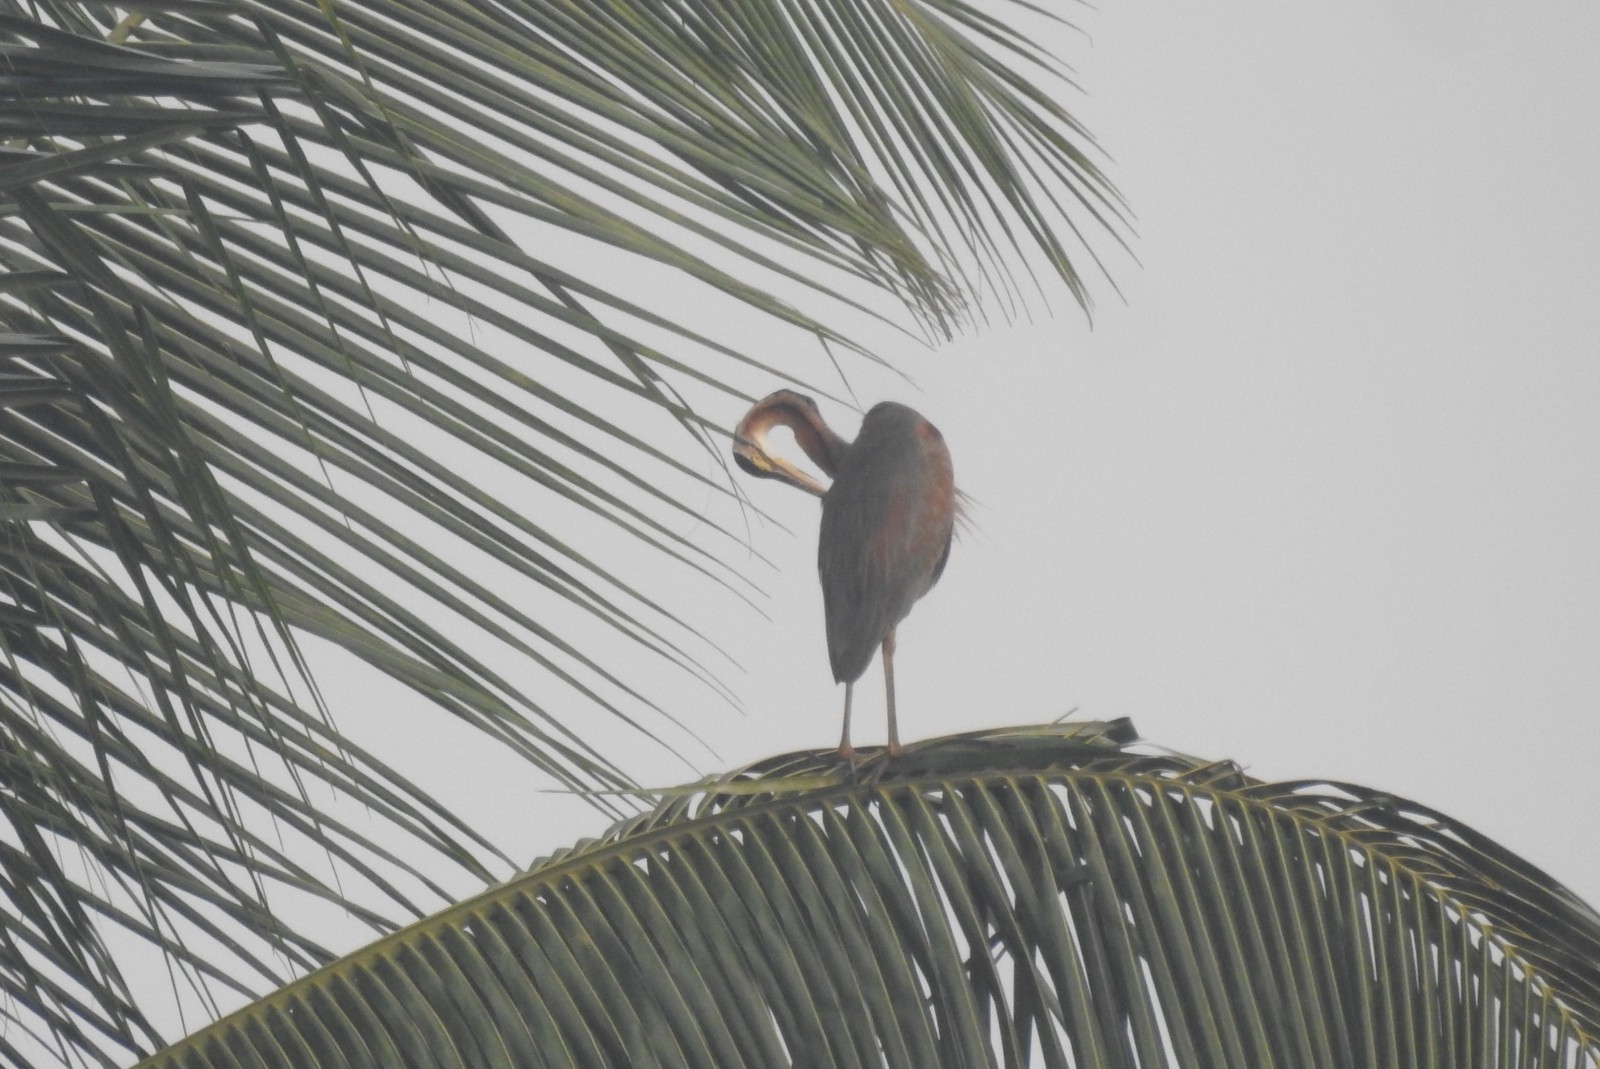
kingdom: Animalia
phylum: Chordata
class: Aves
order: Pelecaniformes
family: Ardeidae
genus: Ardea
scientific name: Ardea purpurea
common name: Purple heron
